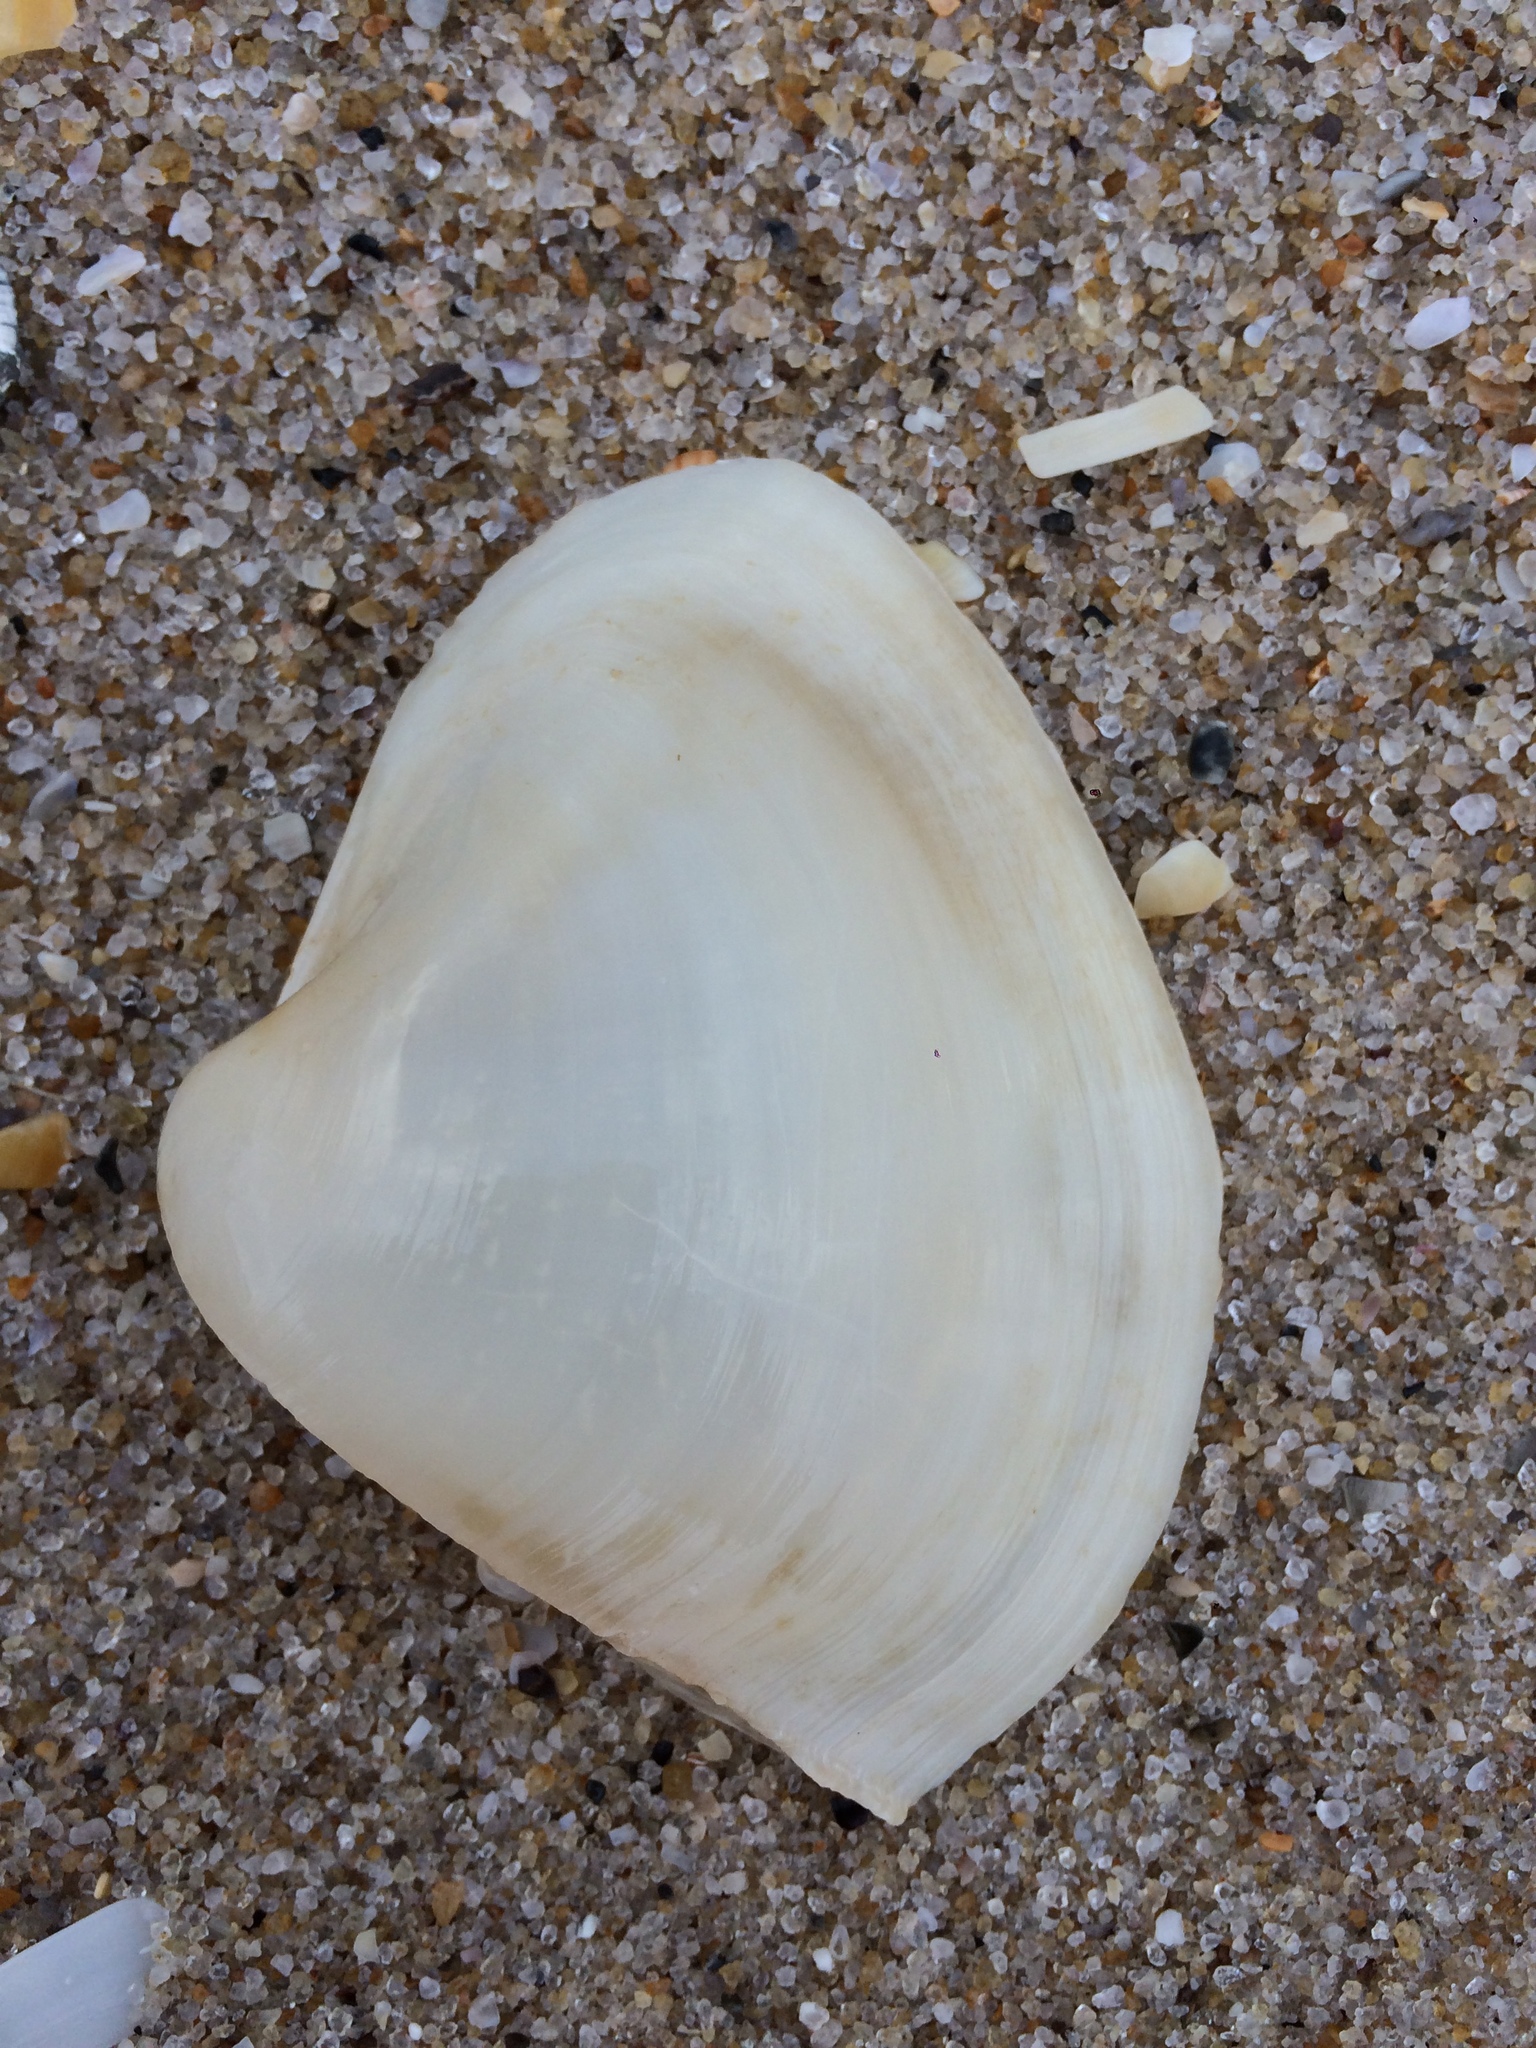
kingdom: Animalia
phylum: Mollusca
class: Bivalvia
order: Venerida
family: Mactridae
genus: Mactrellona
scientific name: Mactrellona alata
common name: Winged surfclam
